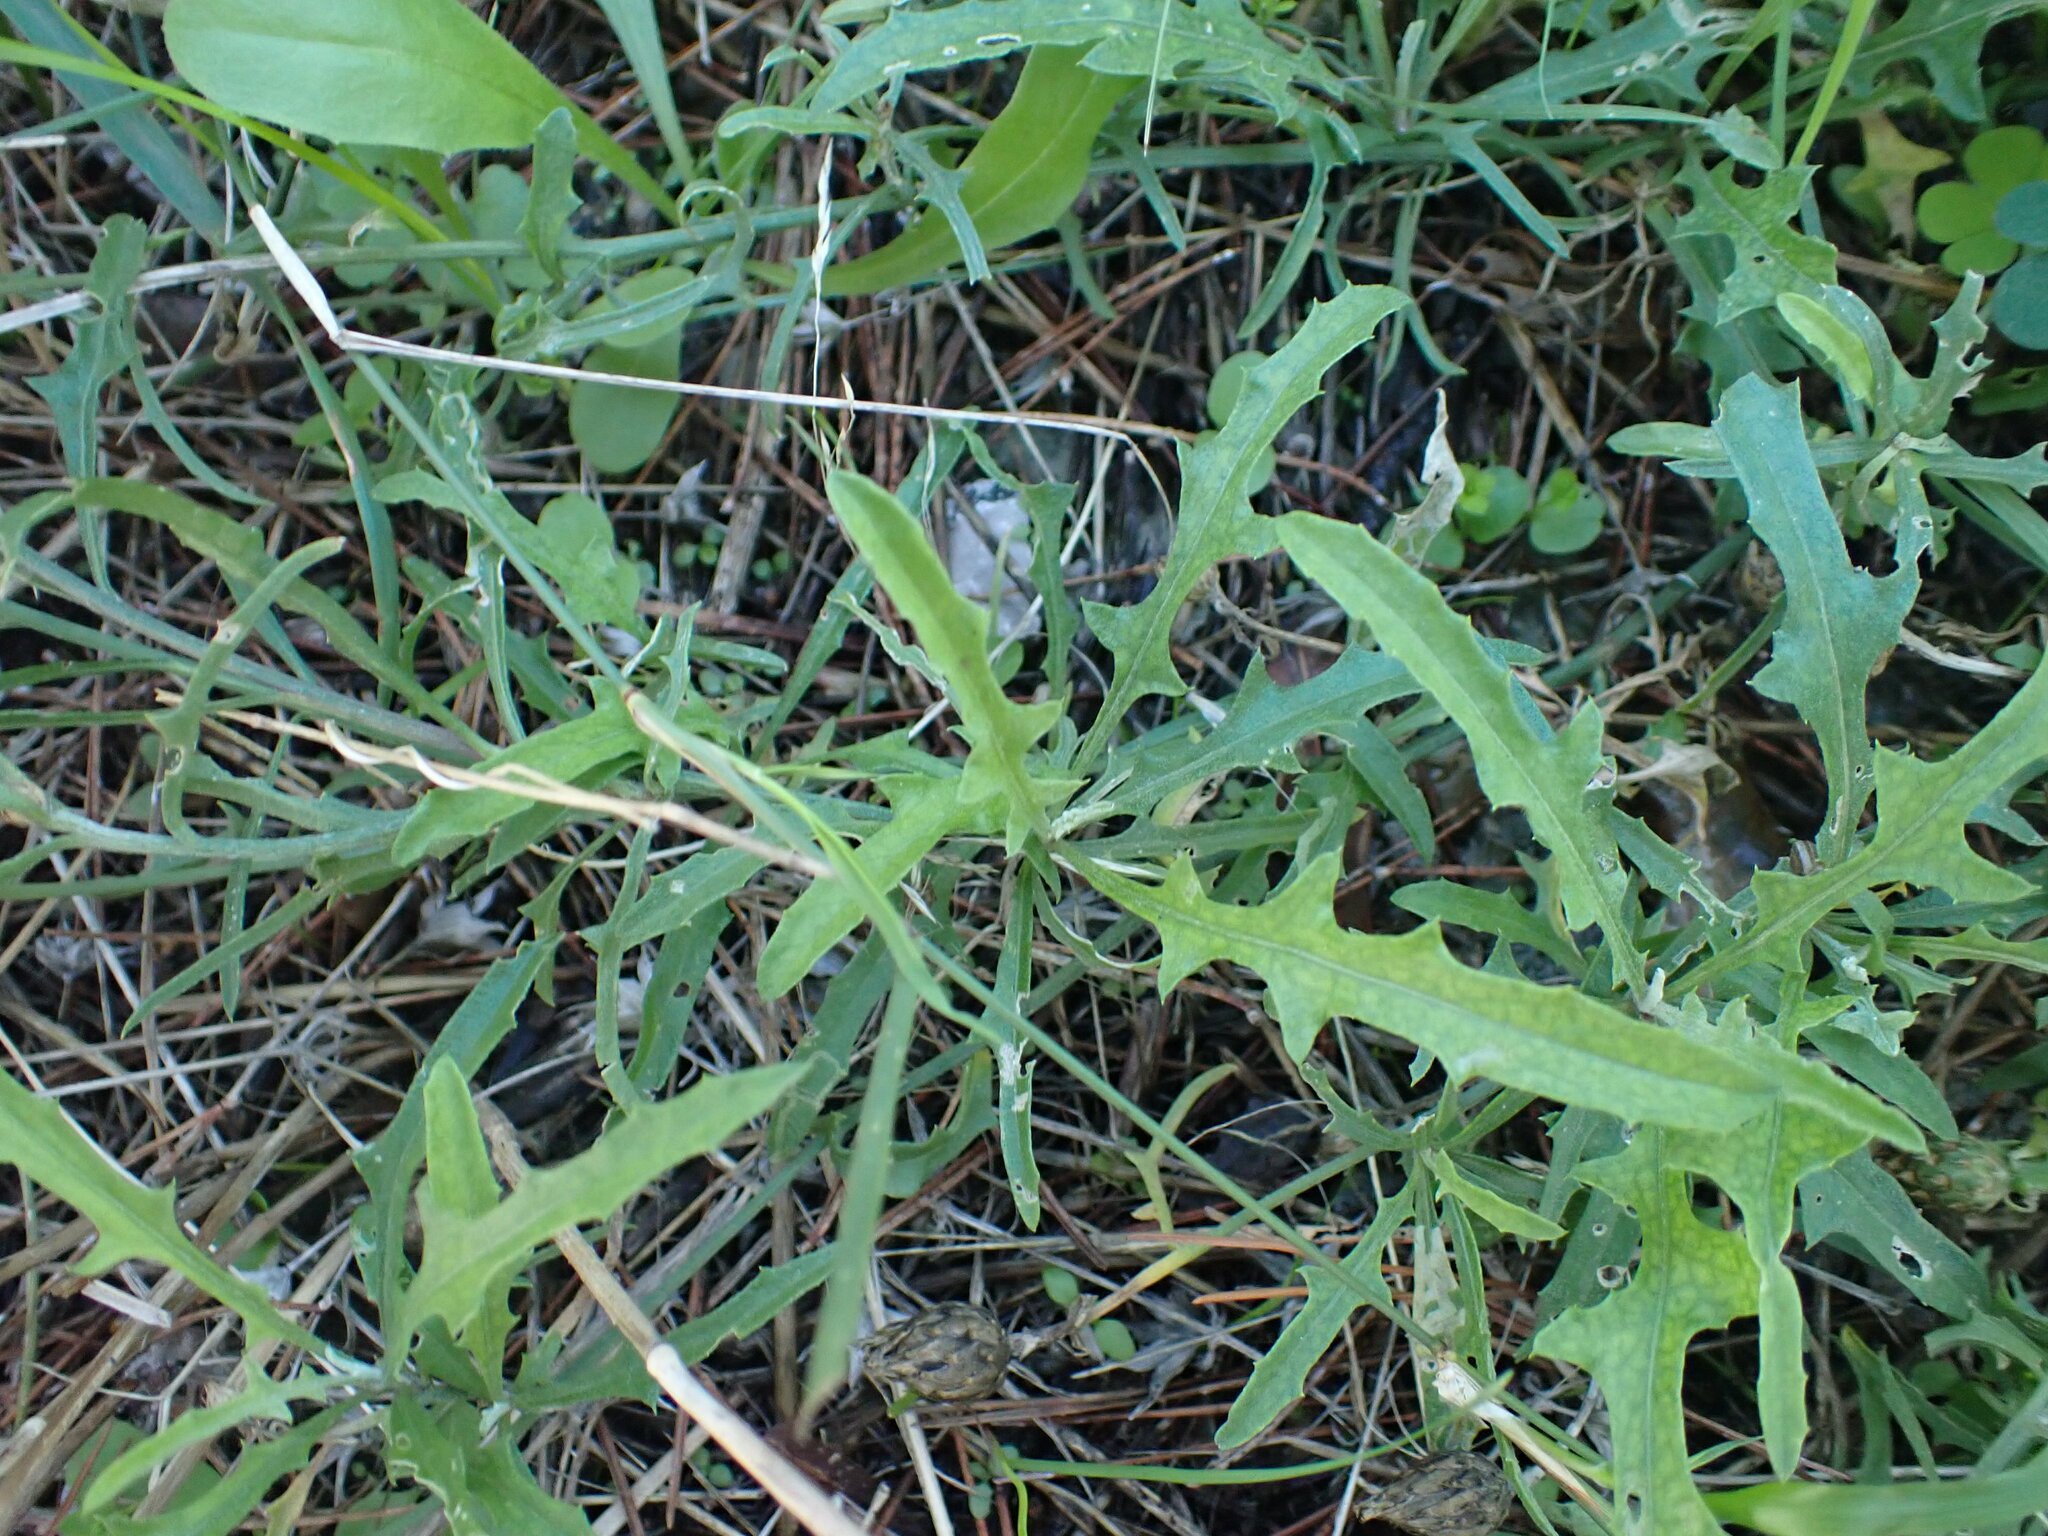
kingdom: Plantae
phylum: Tracheophyta
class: Magnoliopsida
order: Asterales
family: Asteraceae
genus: Centaurea
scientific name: Centaurea aspera
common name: Rough star-thistle
